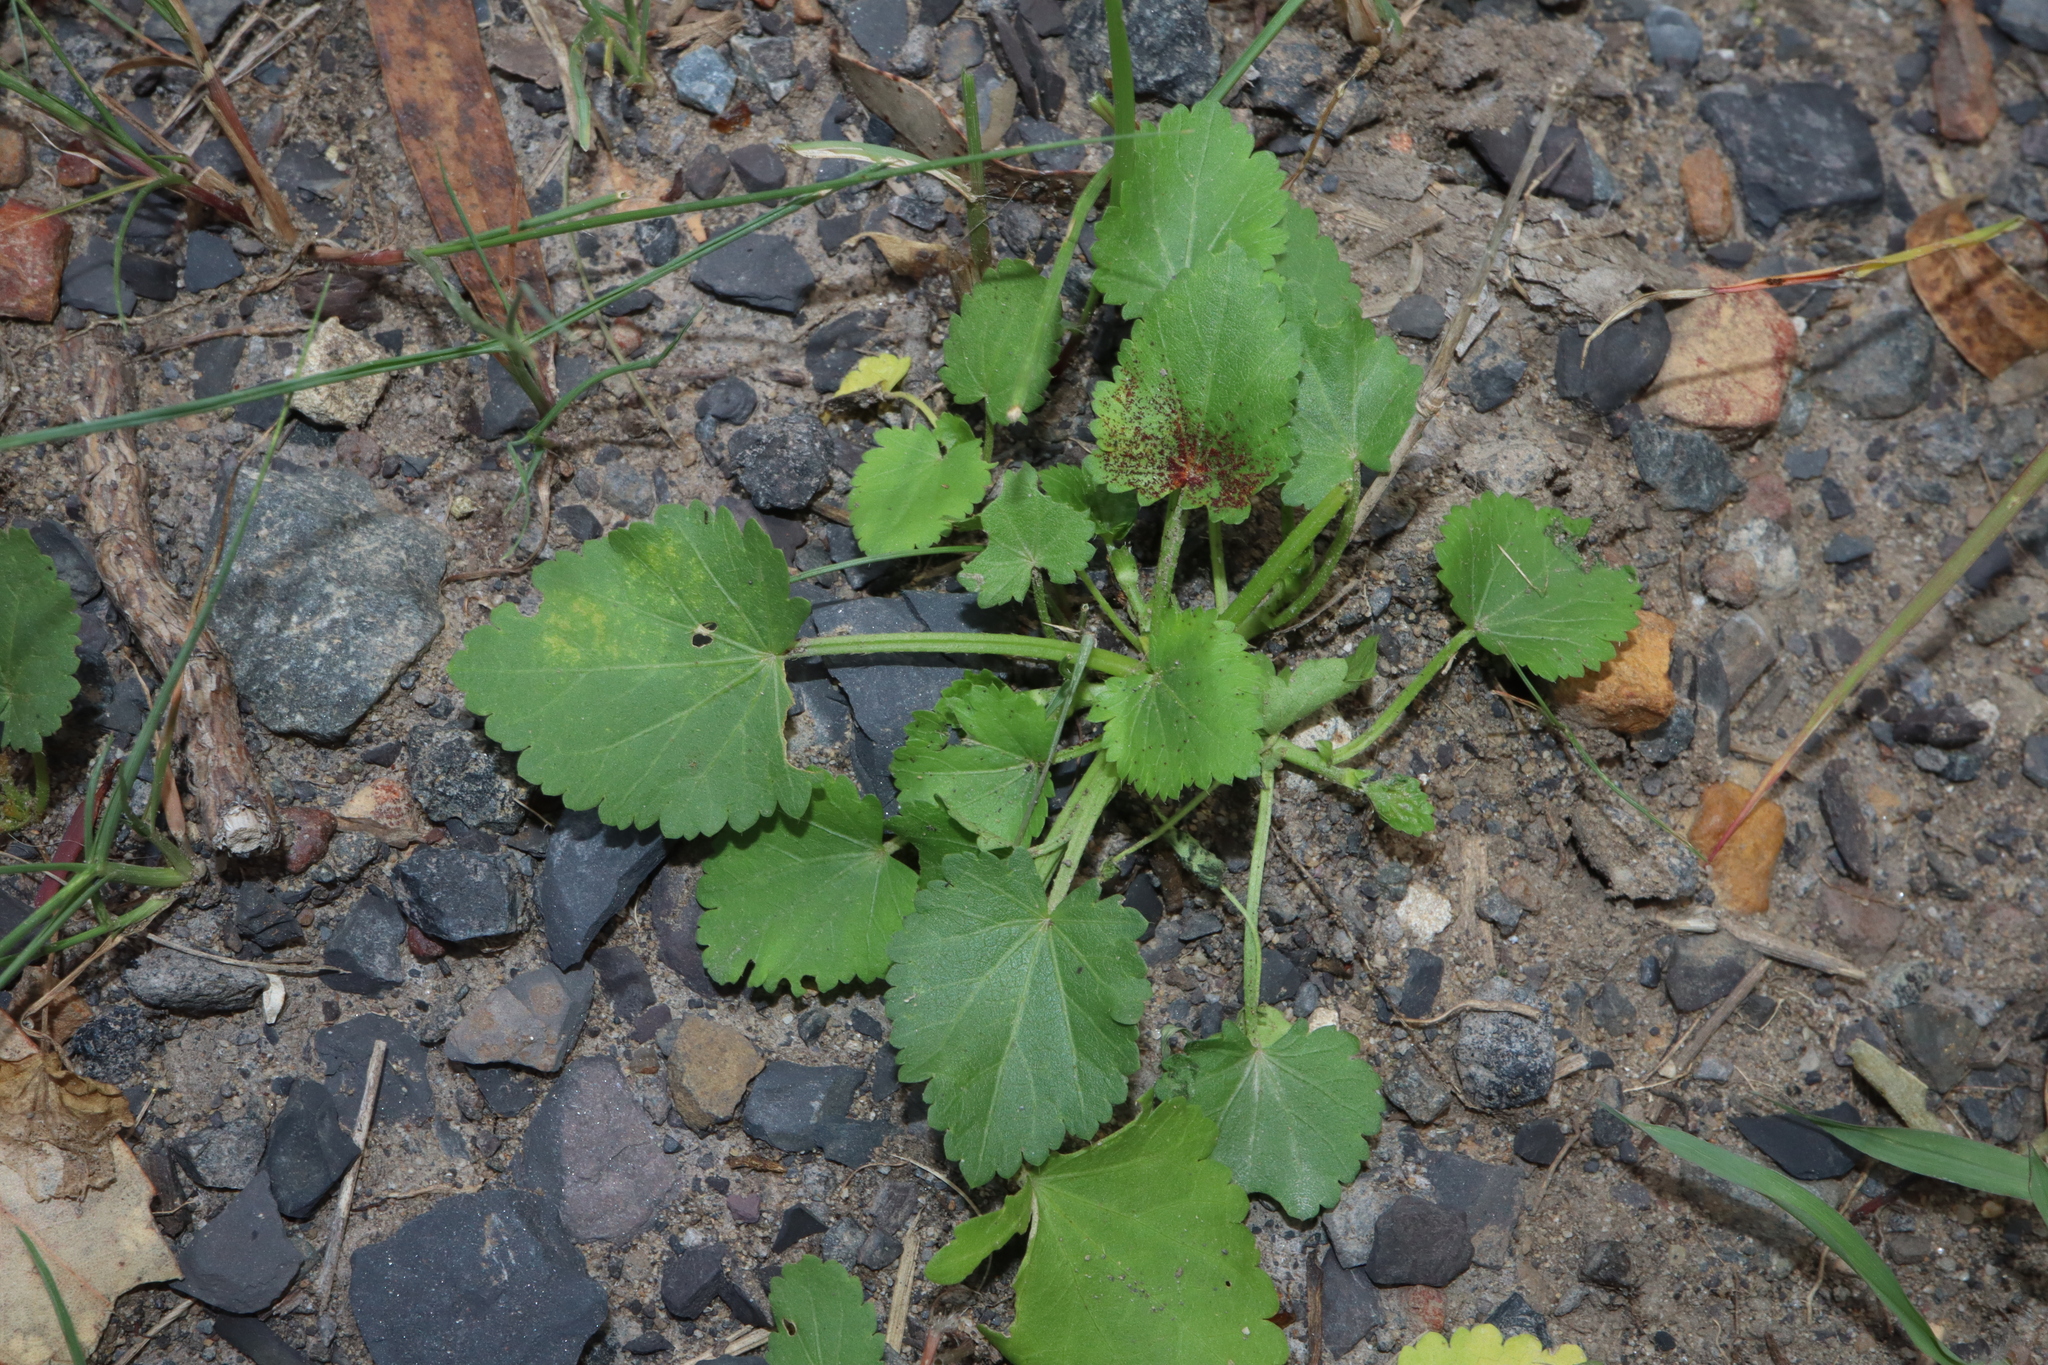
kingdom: Plantae
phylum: Tracheophyta
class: Magnoliopsida
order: Malvales
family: Malvaceae
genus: Modiola
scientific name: Modiola caroliniana
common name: Carolina bristlemallow
